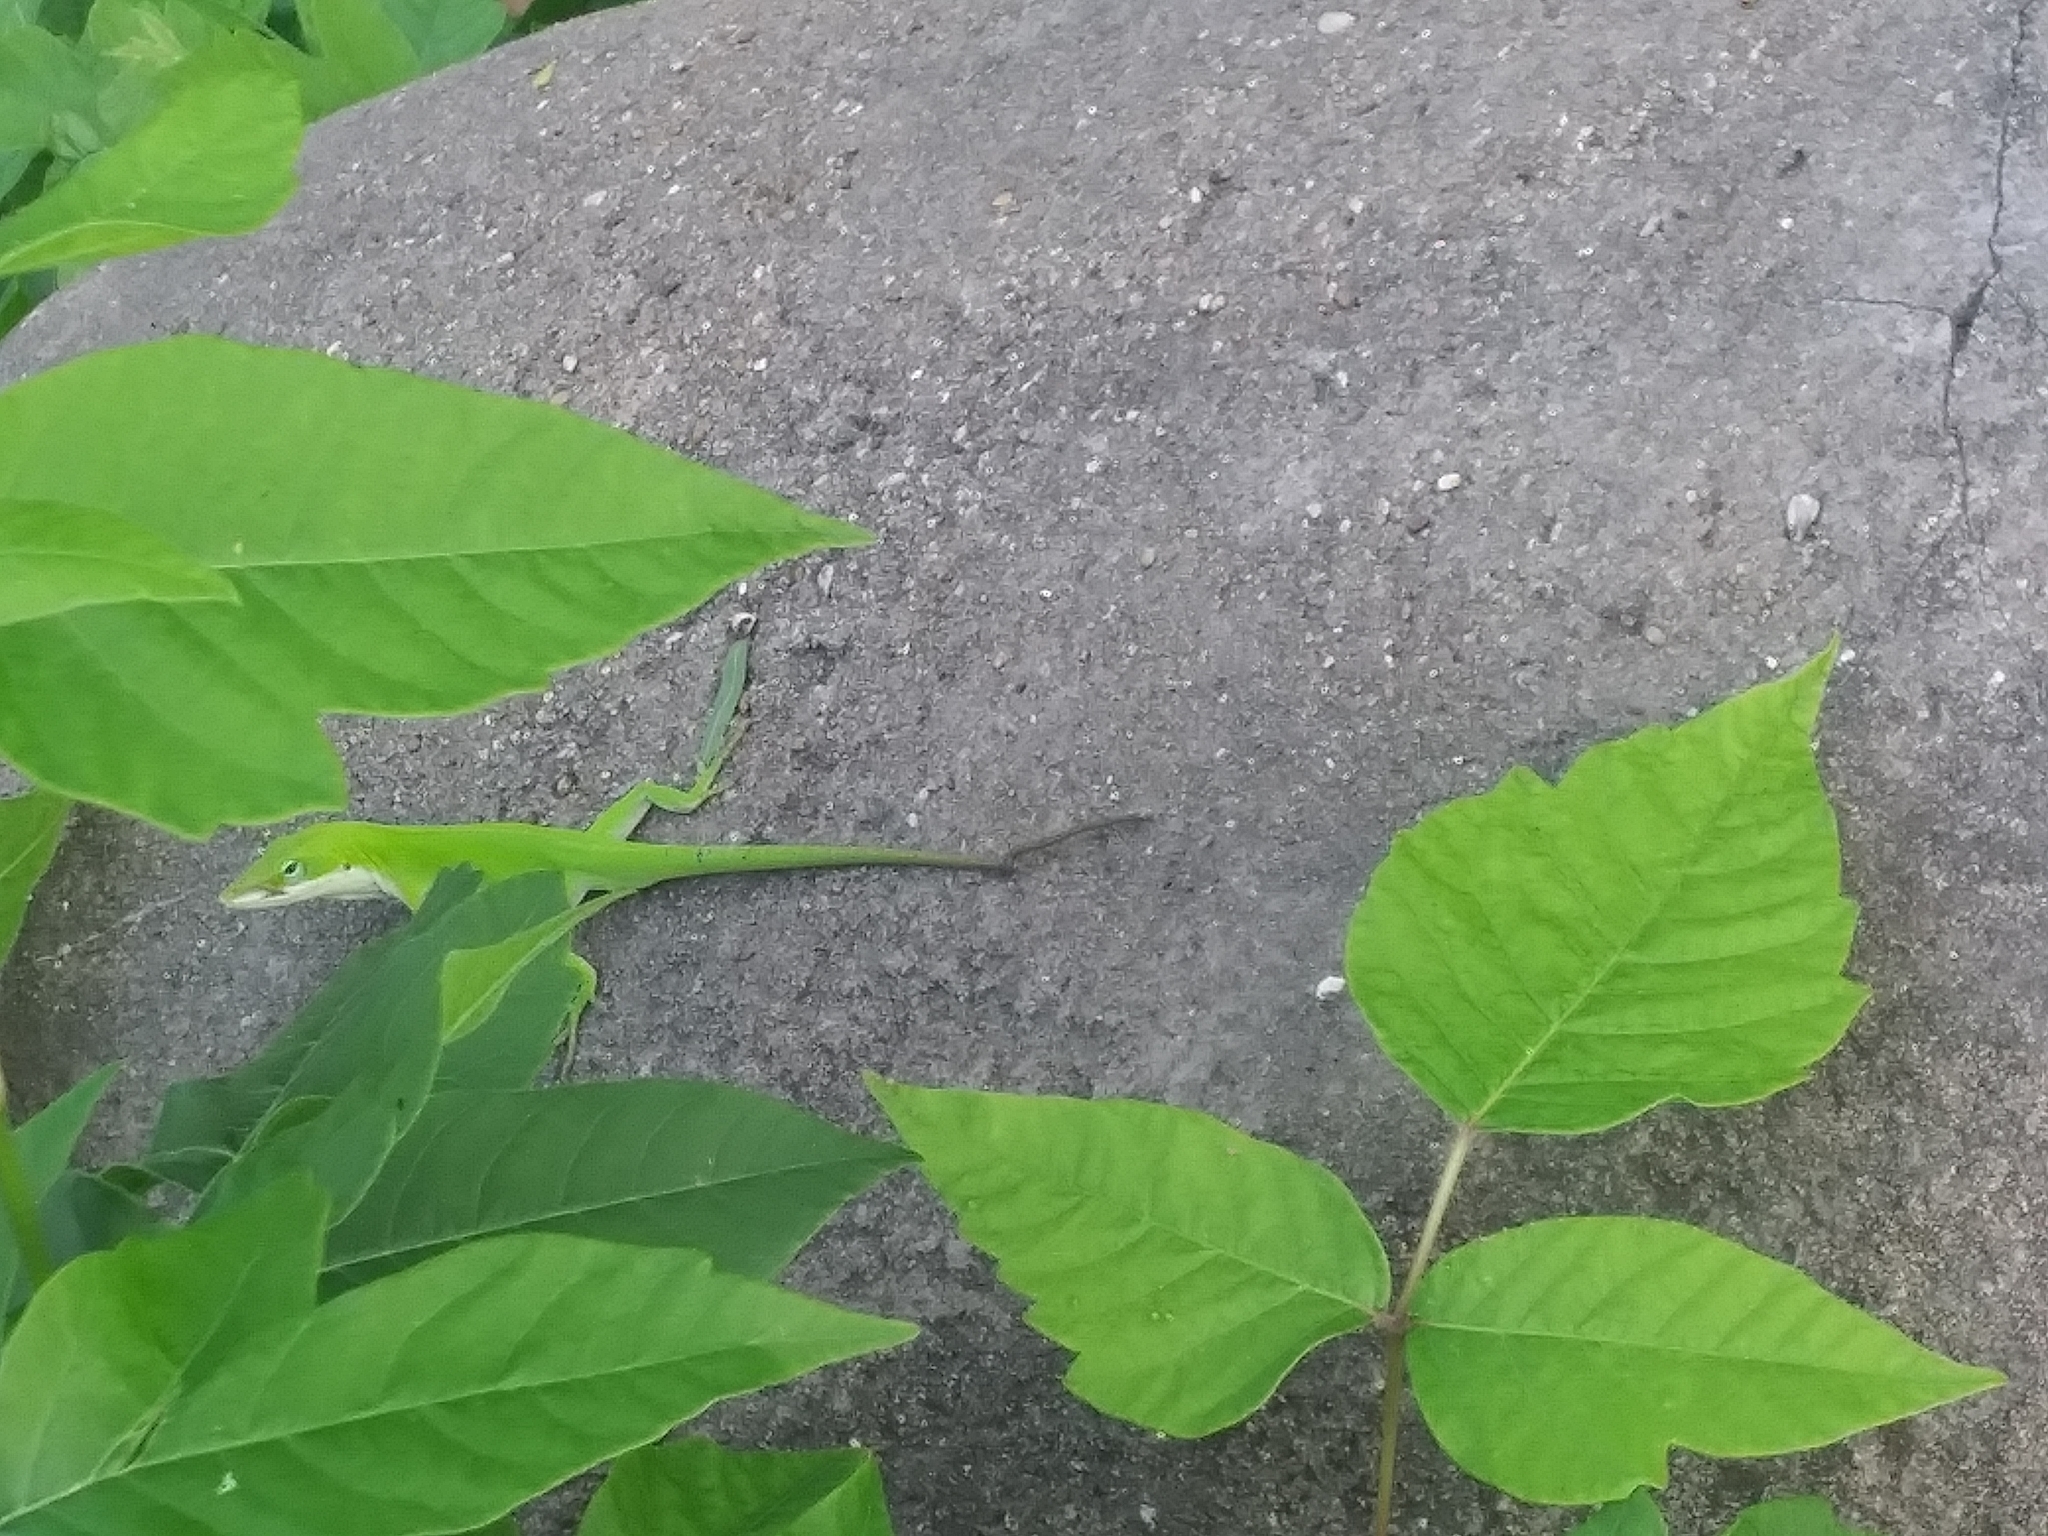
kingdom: Animalia
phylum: Chordata
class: Squamata
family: Dactyloidae
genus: Anolis
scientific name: Anolis carolinensis
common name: Green anole
